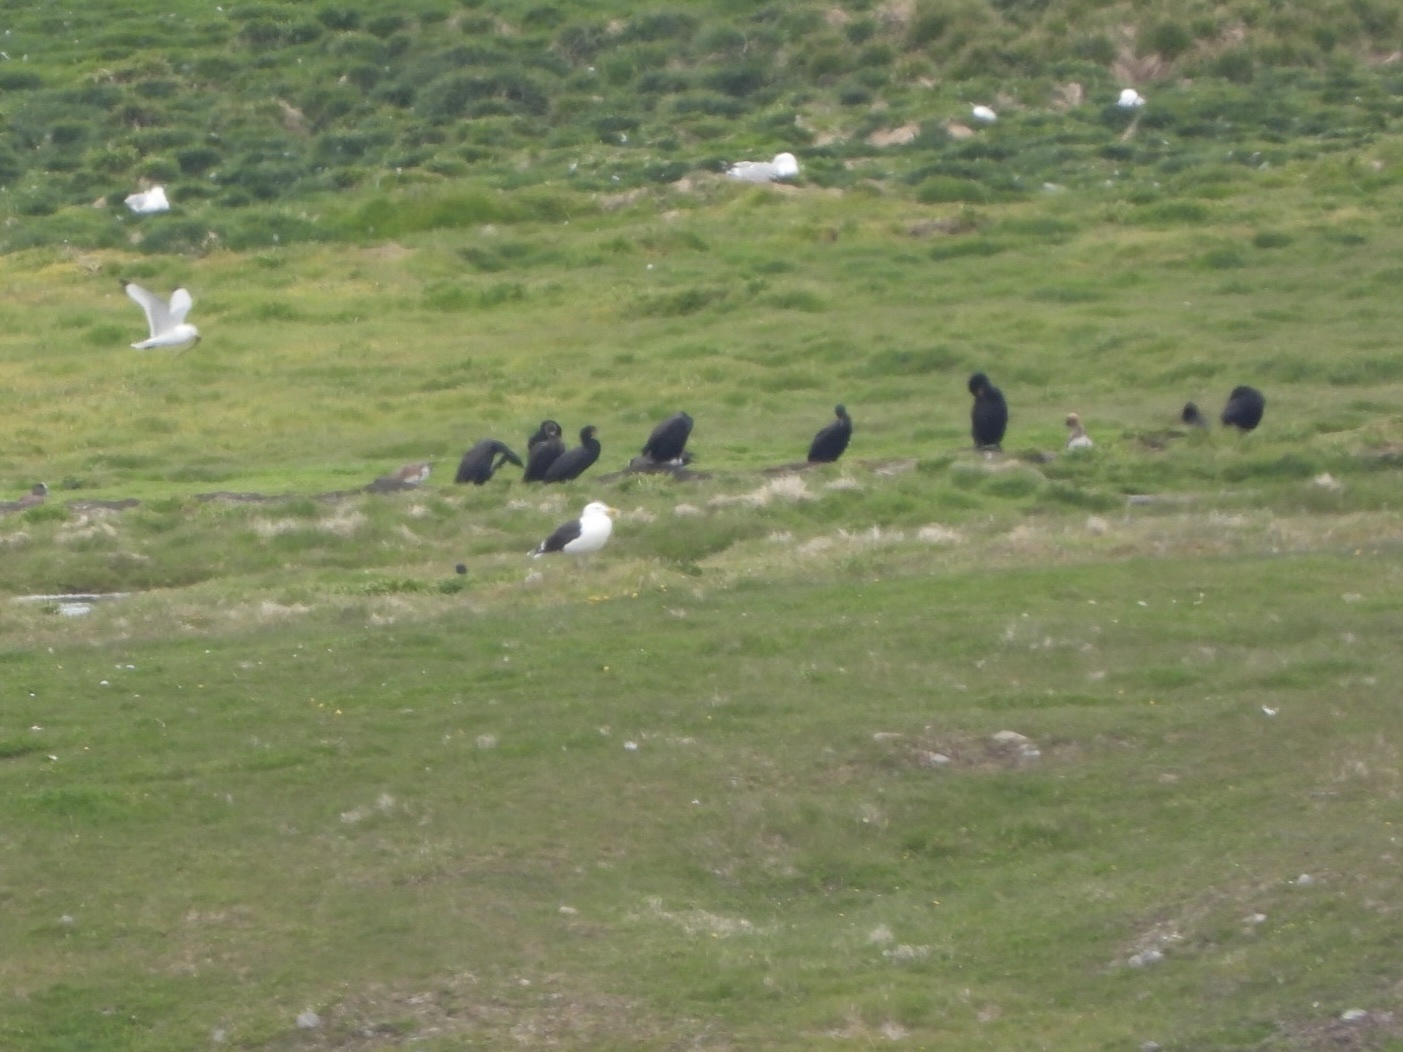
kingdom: Animalia
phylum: Chordata
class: Aves
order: Charadriiformes
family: Laridae
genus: Rissa
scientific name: Rissa tridactyla
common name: Black-legged kittiwake
